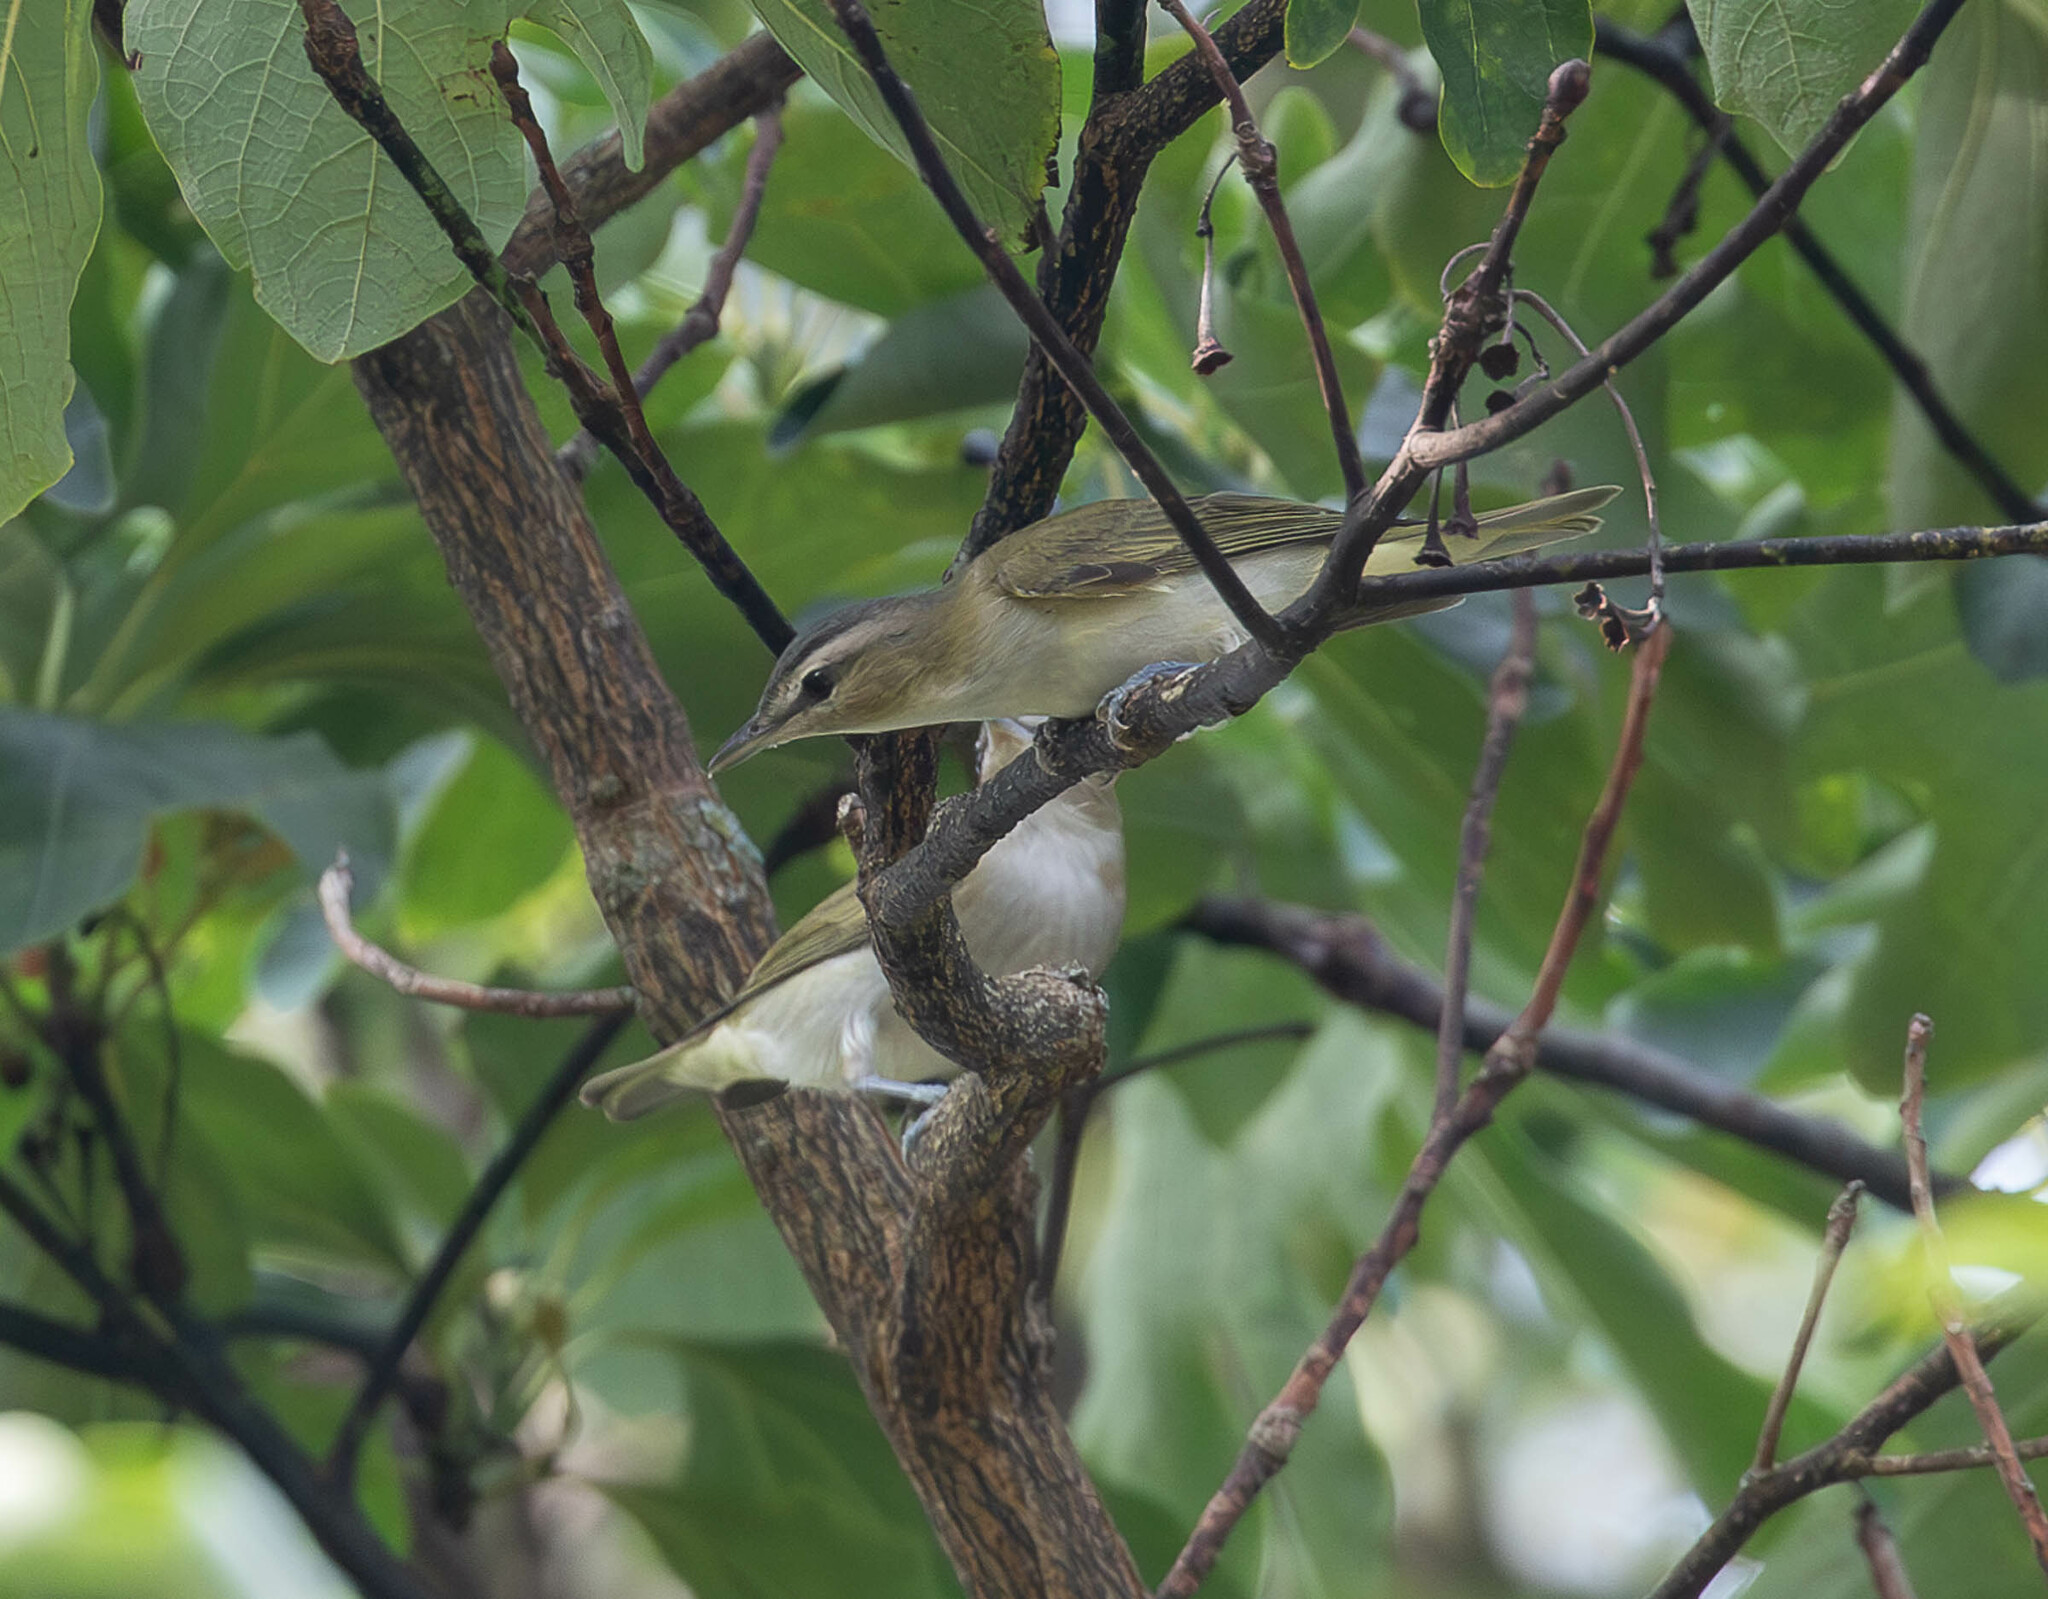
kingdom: Animalia
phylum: Chordata
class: Aves
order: Passeriformes
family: Vireonidae
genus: Vireo
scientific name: Vireo olivaceus
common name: Red-eyed vireo
